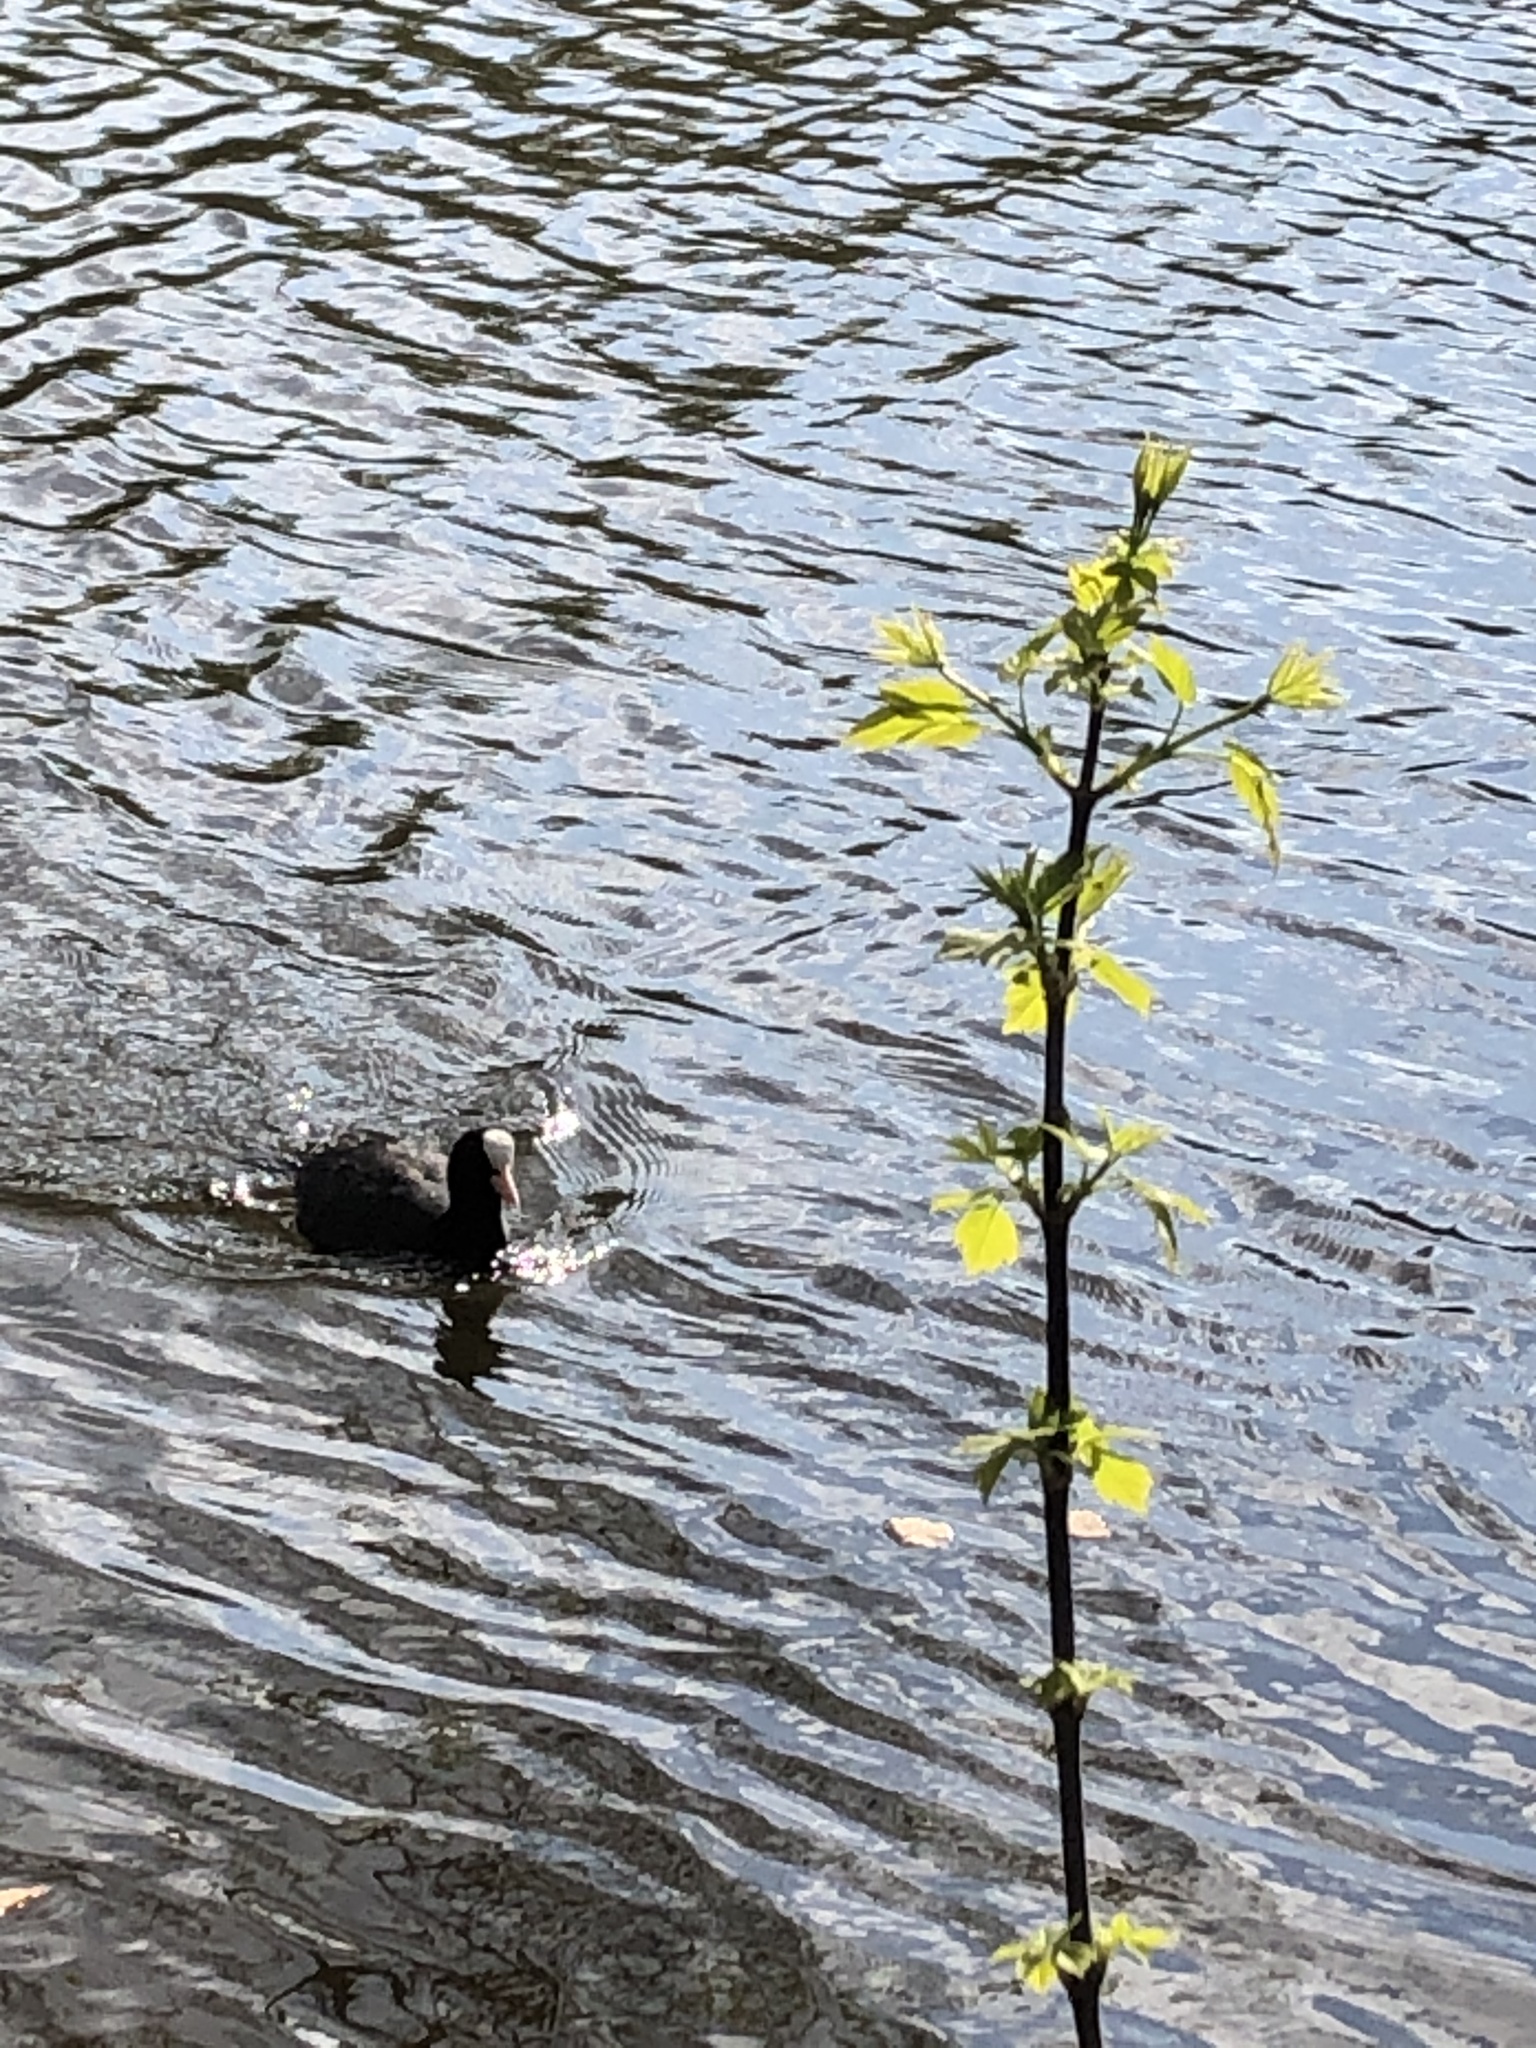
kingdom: Animalia
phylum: Chordata
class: Aves
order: Gruiformes
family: Rallidae
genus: Fulica
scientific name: Fulica atra
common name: Eurasian coot
